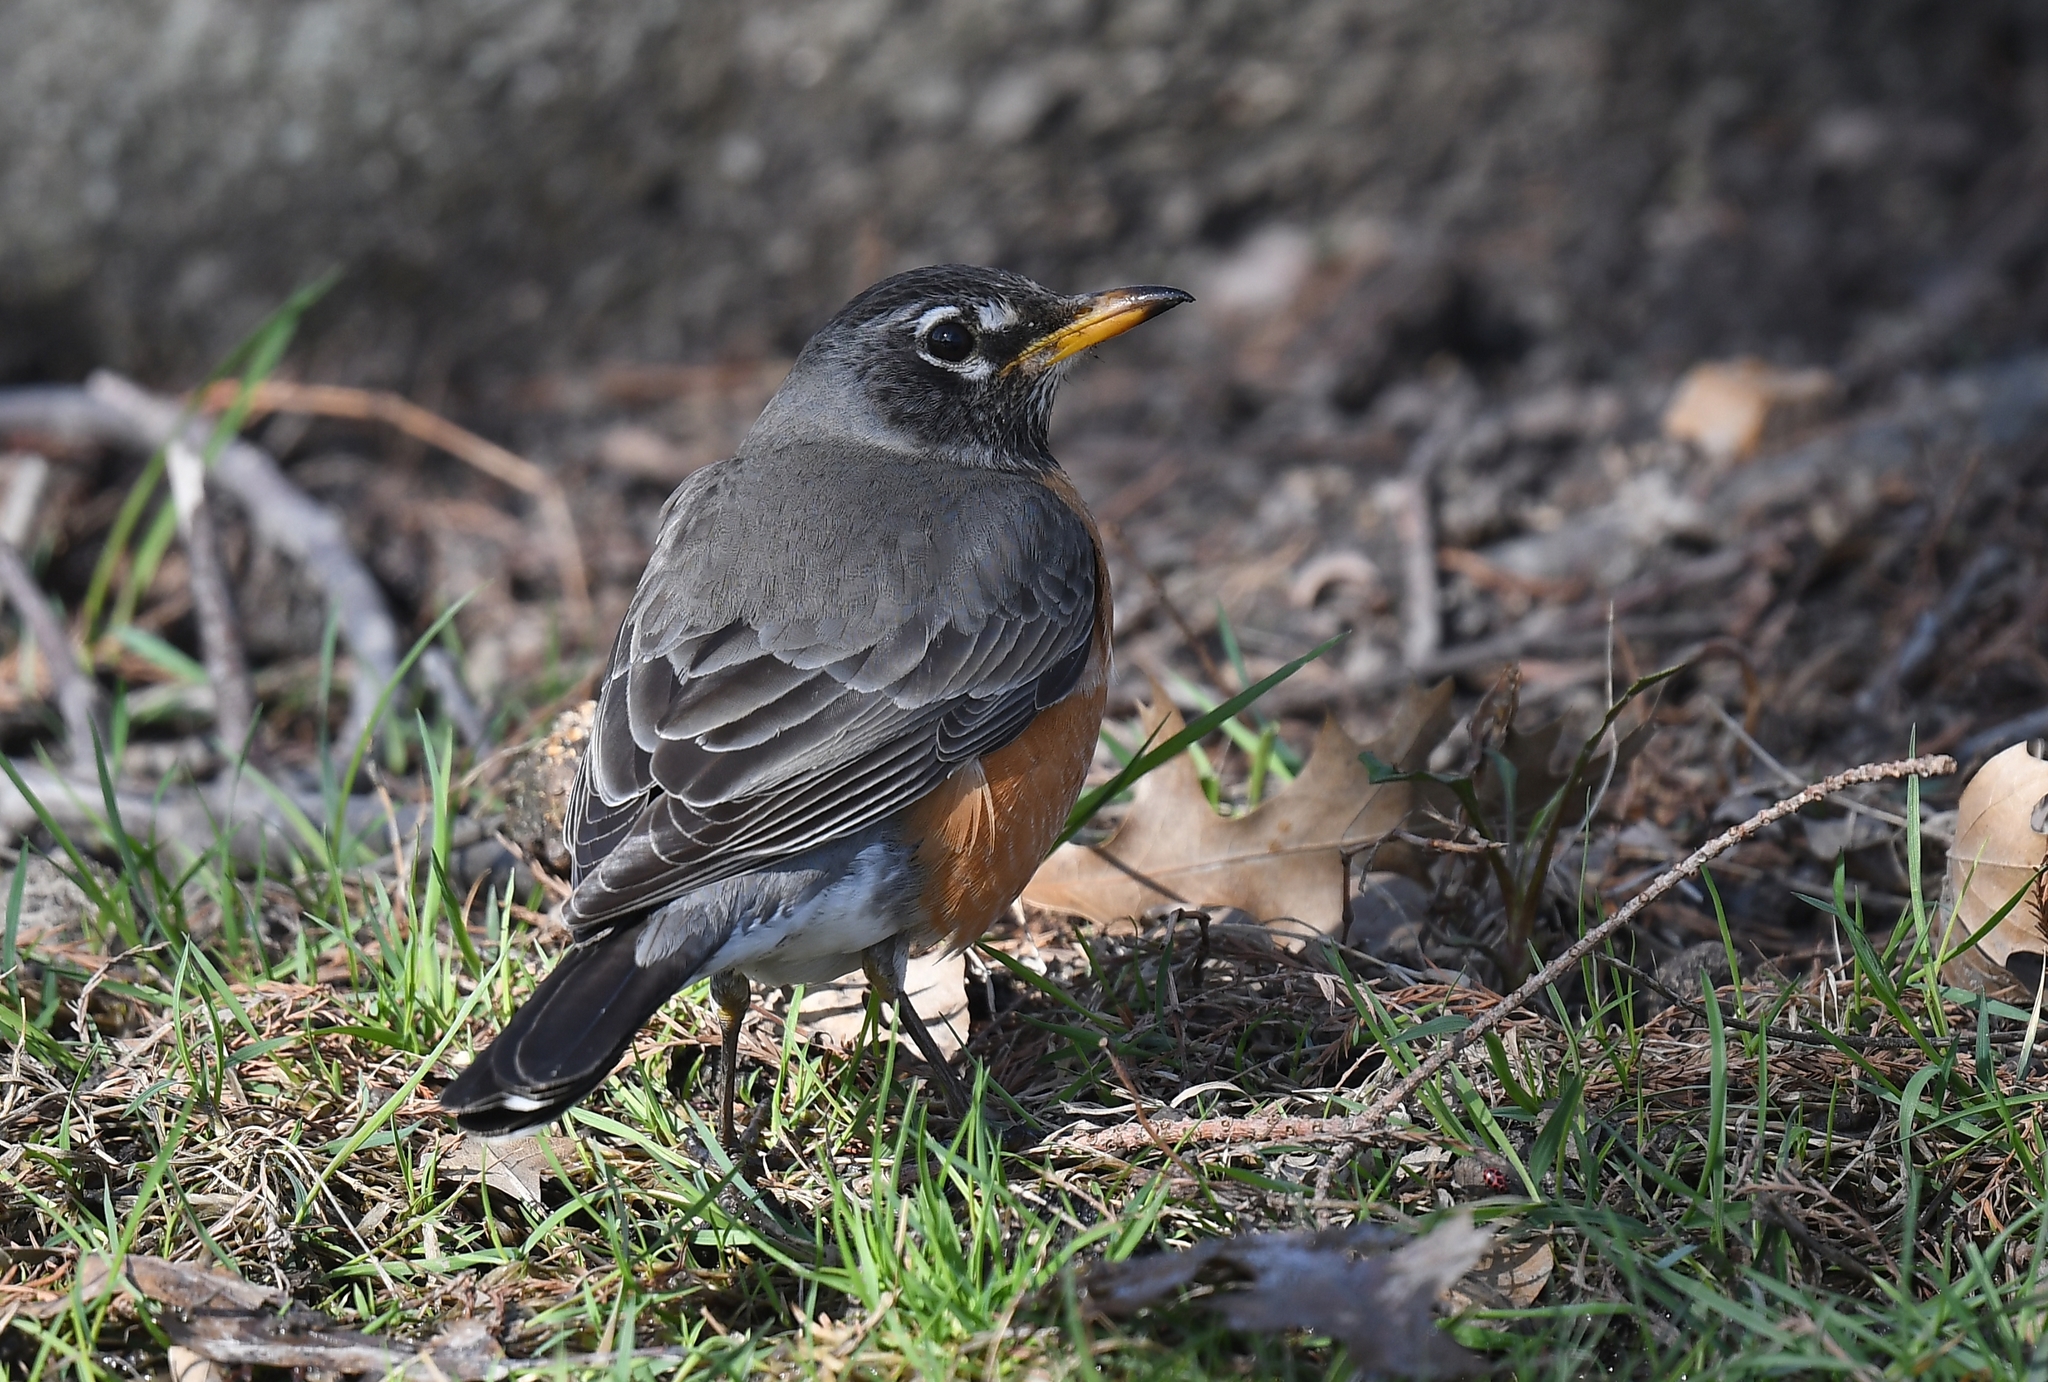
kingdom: Animalia
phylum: Chordata
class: Aves
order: Passeriformes
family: Turdidae
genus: Turdus
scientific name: Turdus migratorius
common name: American robin
